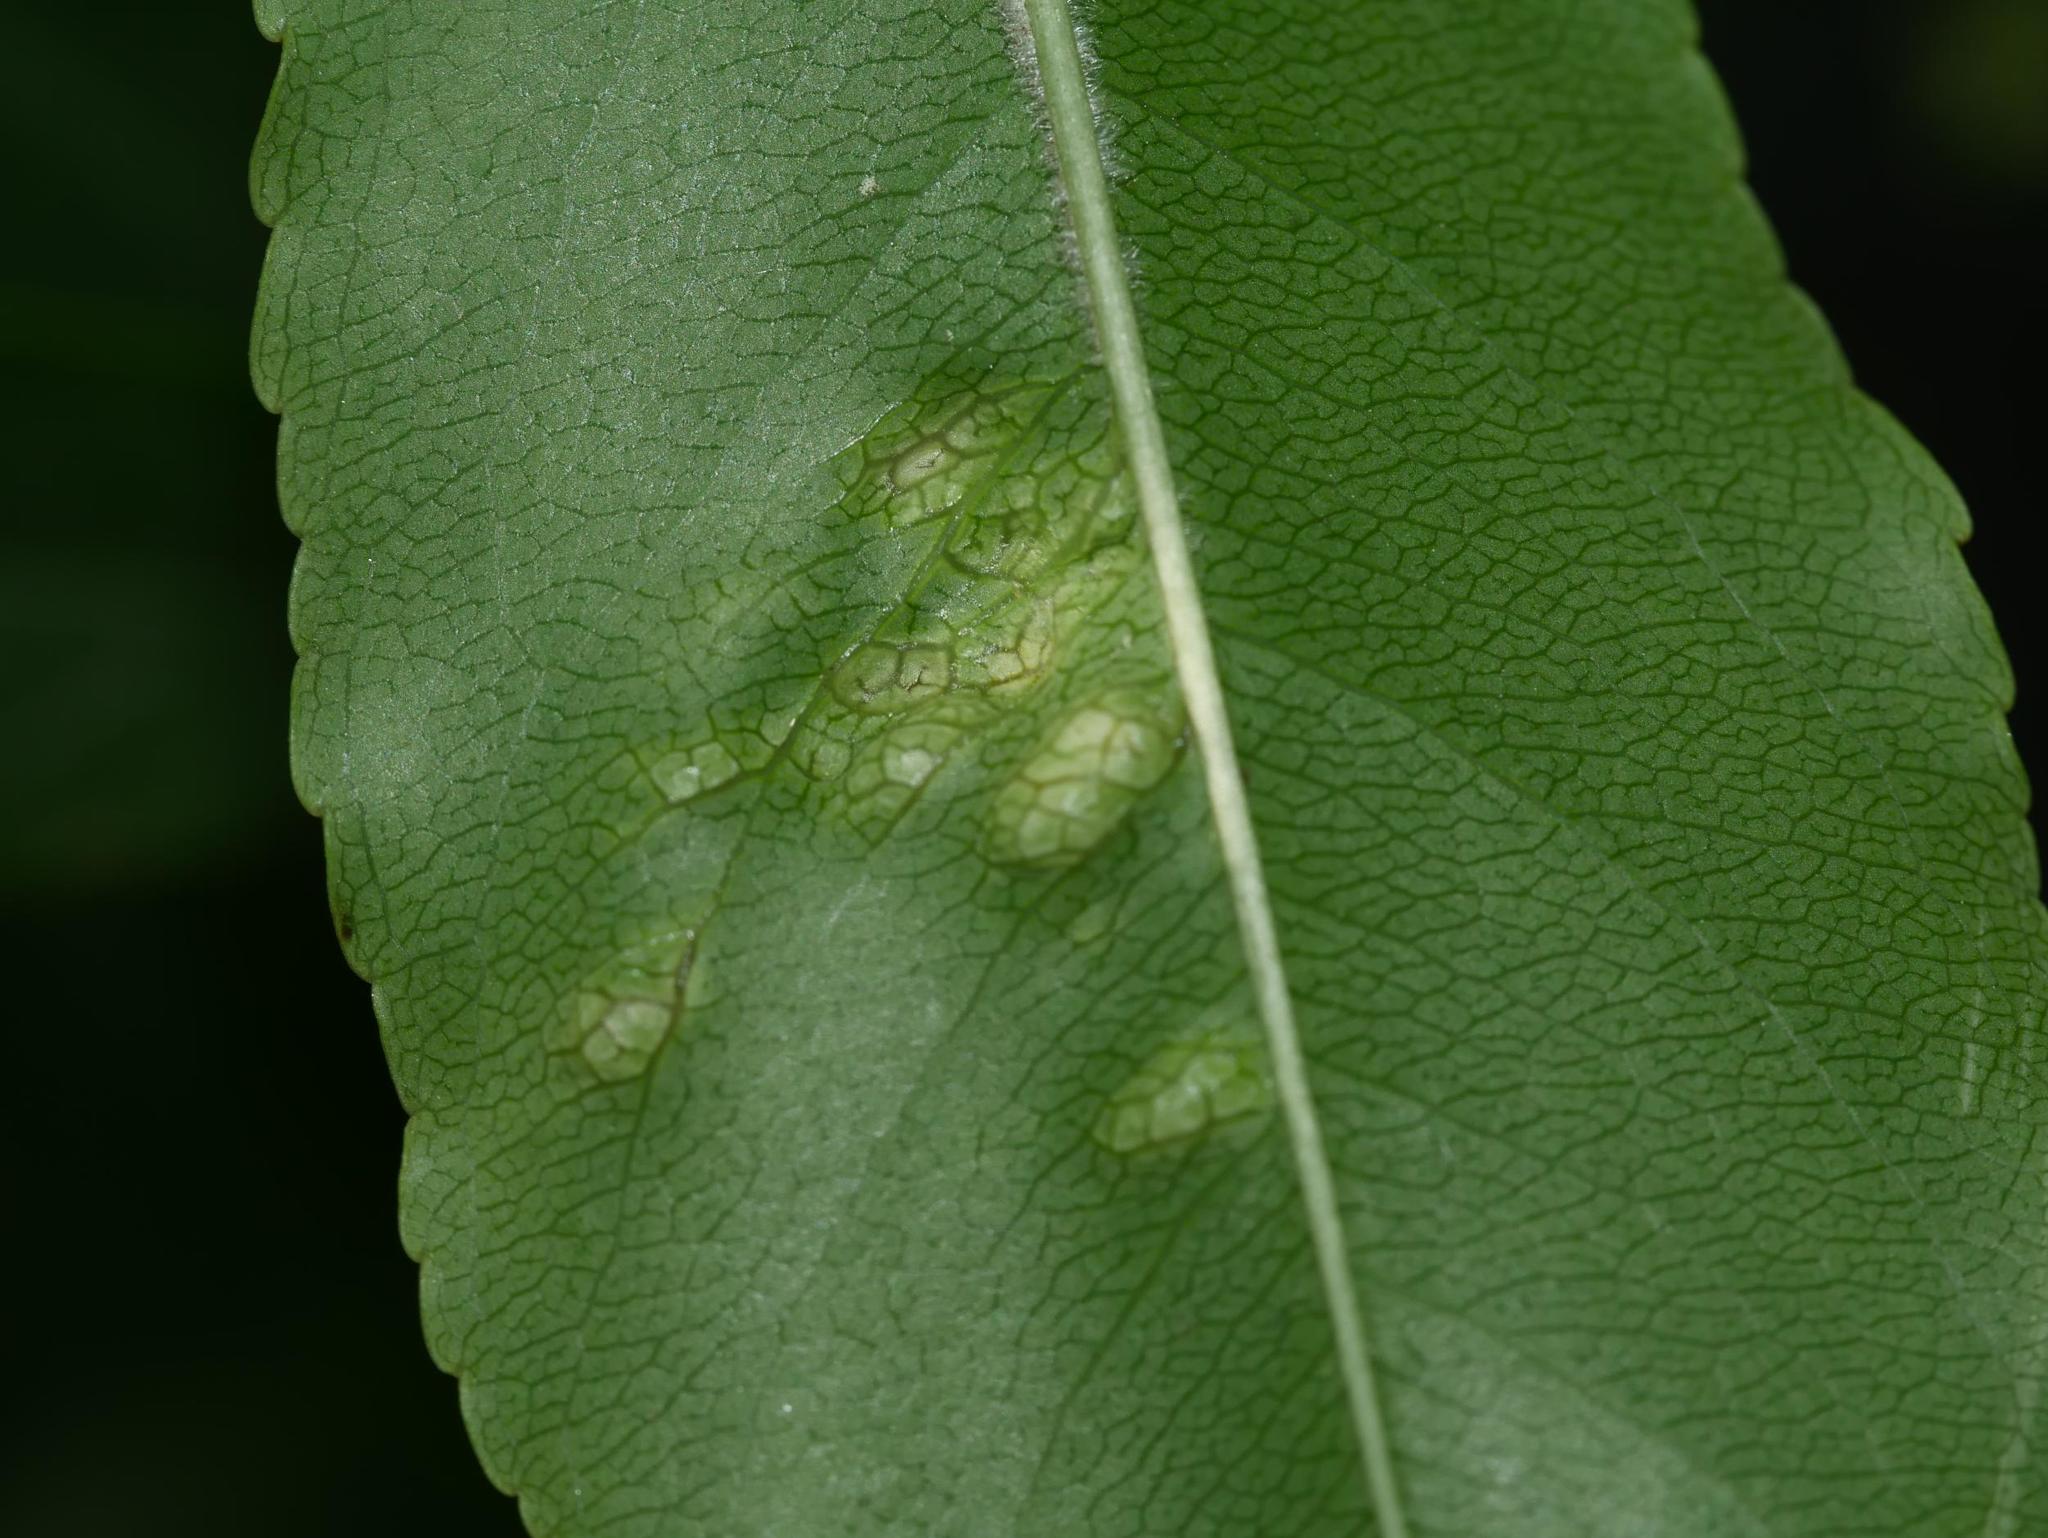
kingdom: Fungi
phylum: Ascomycota
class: Taphrinomycetes
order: Taphrinales
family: Taphrinaceae
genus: Taphrina
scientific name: Taphrina farlowii
